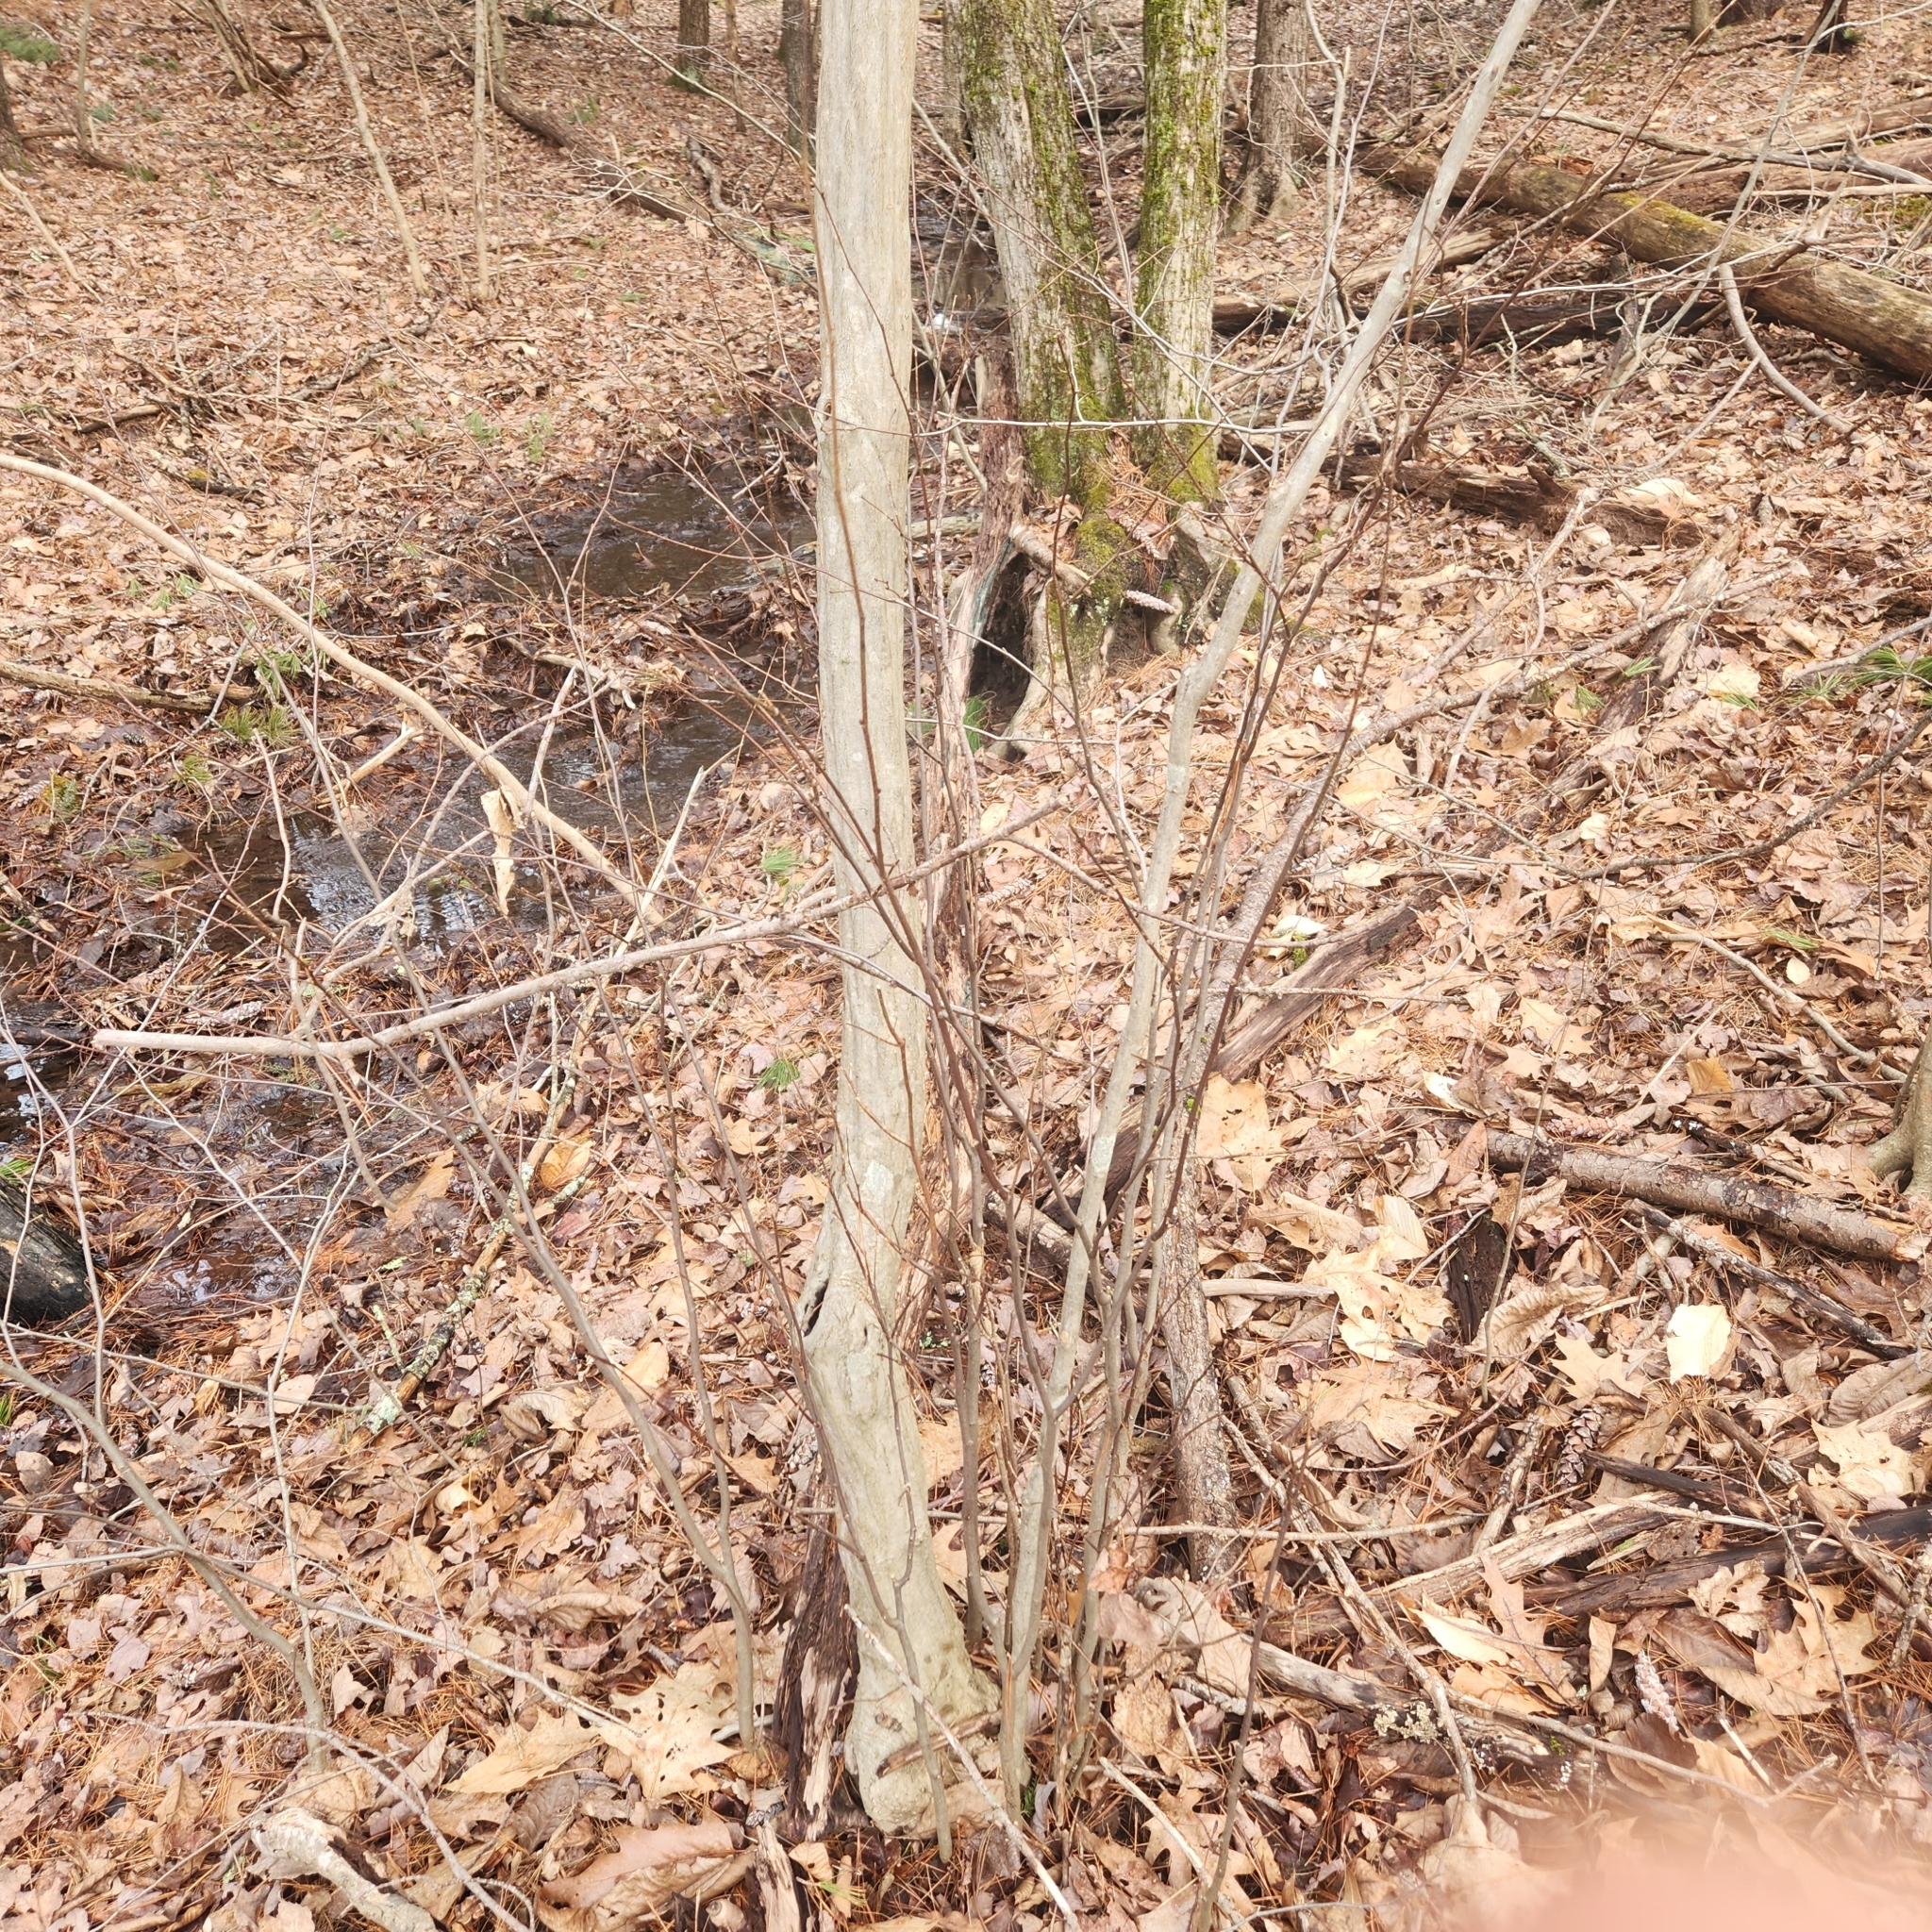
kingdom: Plantae
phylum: Tracheophyta
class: Magnoliopsida
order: Fagales
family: Betulaceae
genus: Carpinus
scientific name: Carpinus caroliniana
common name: American hornbeam
